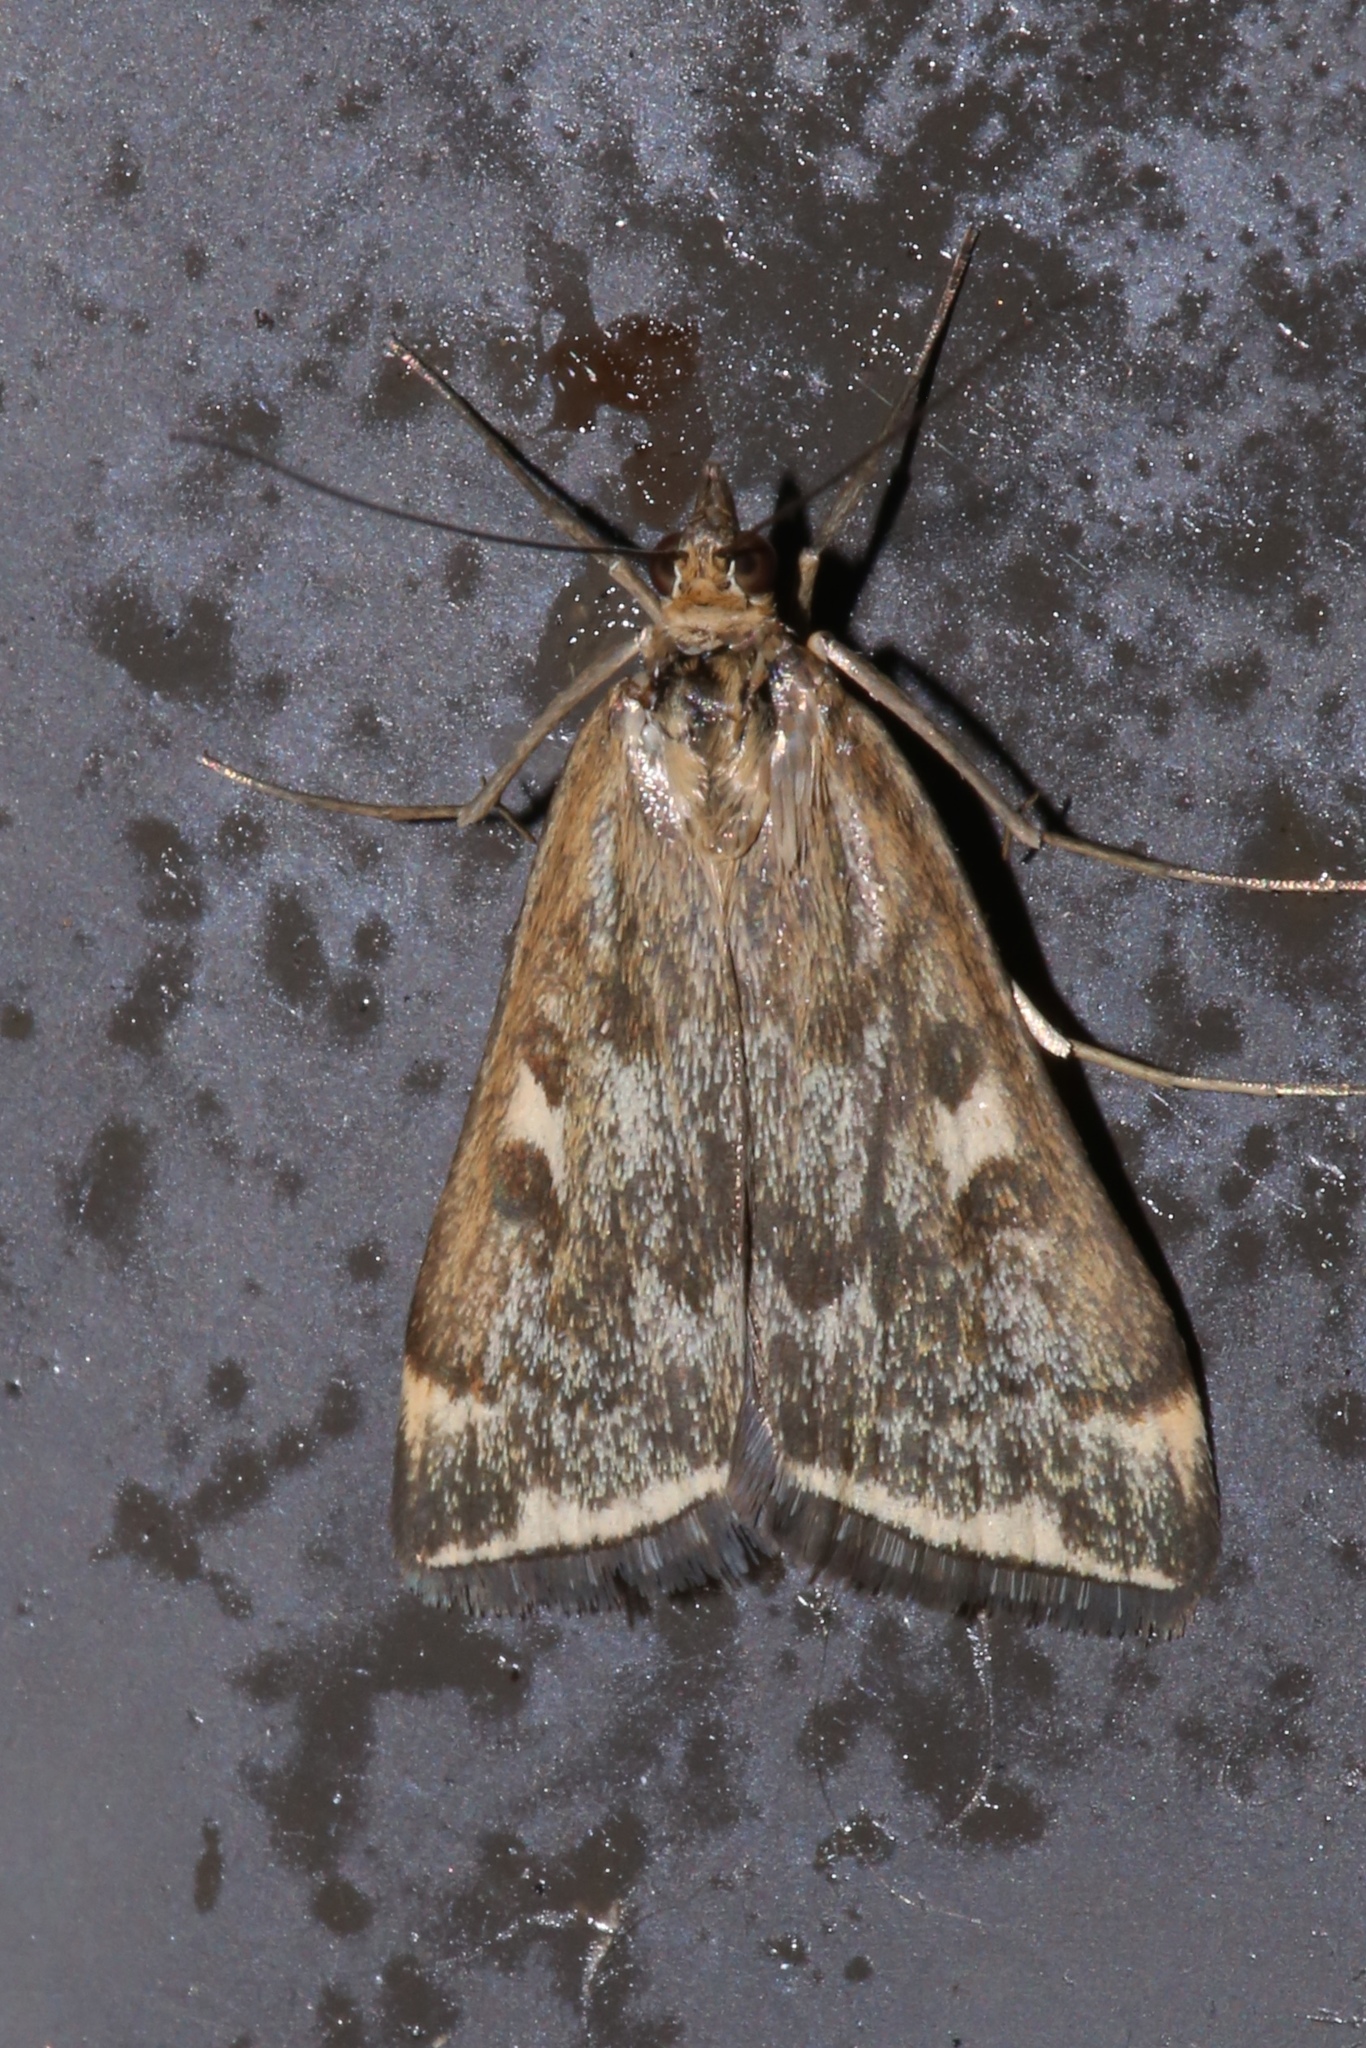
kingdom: Animalia
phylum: Arthropoda
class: Insecta
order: Lepidoptera
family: Crambidae
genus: Loxostege
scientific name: Loxostege
